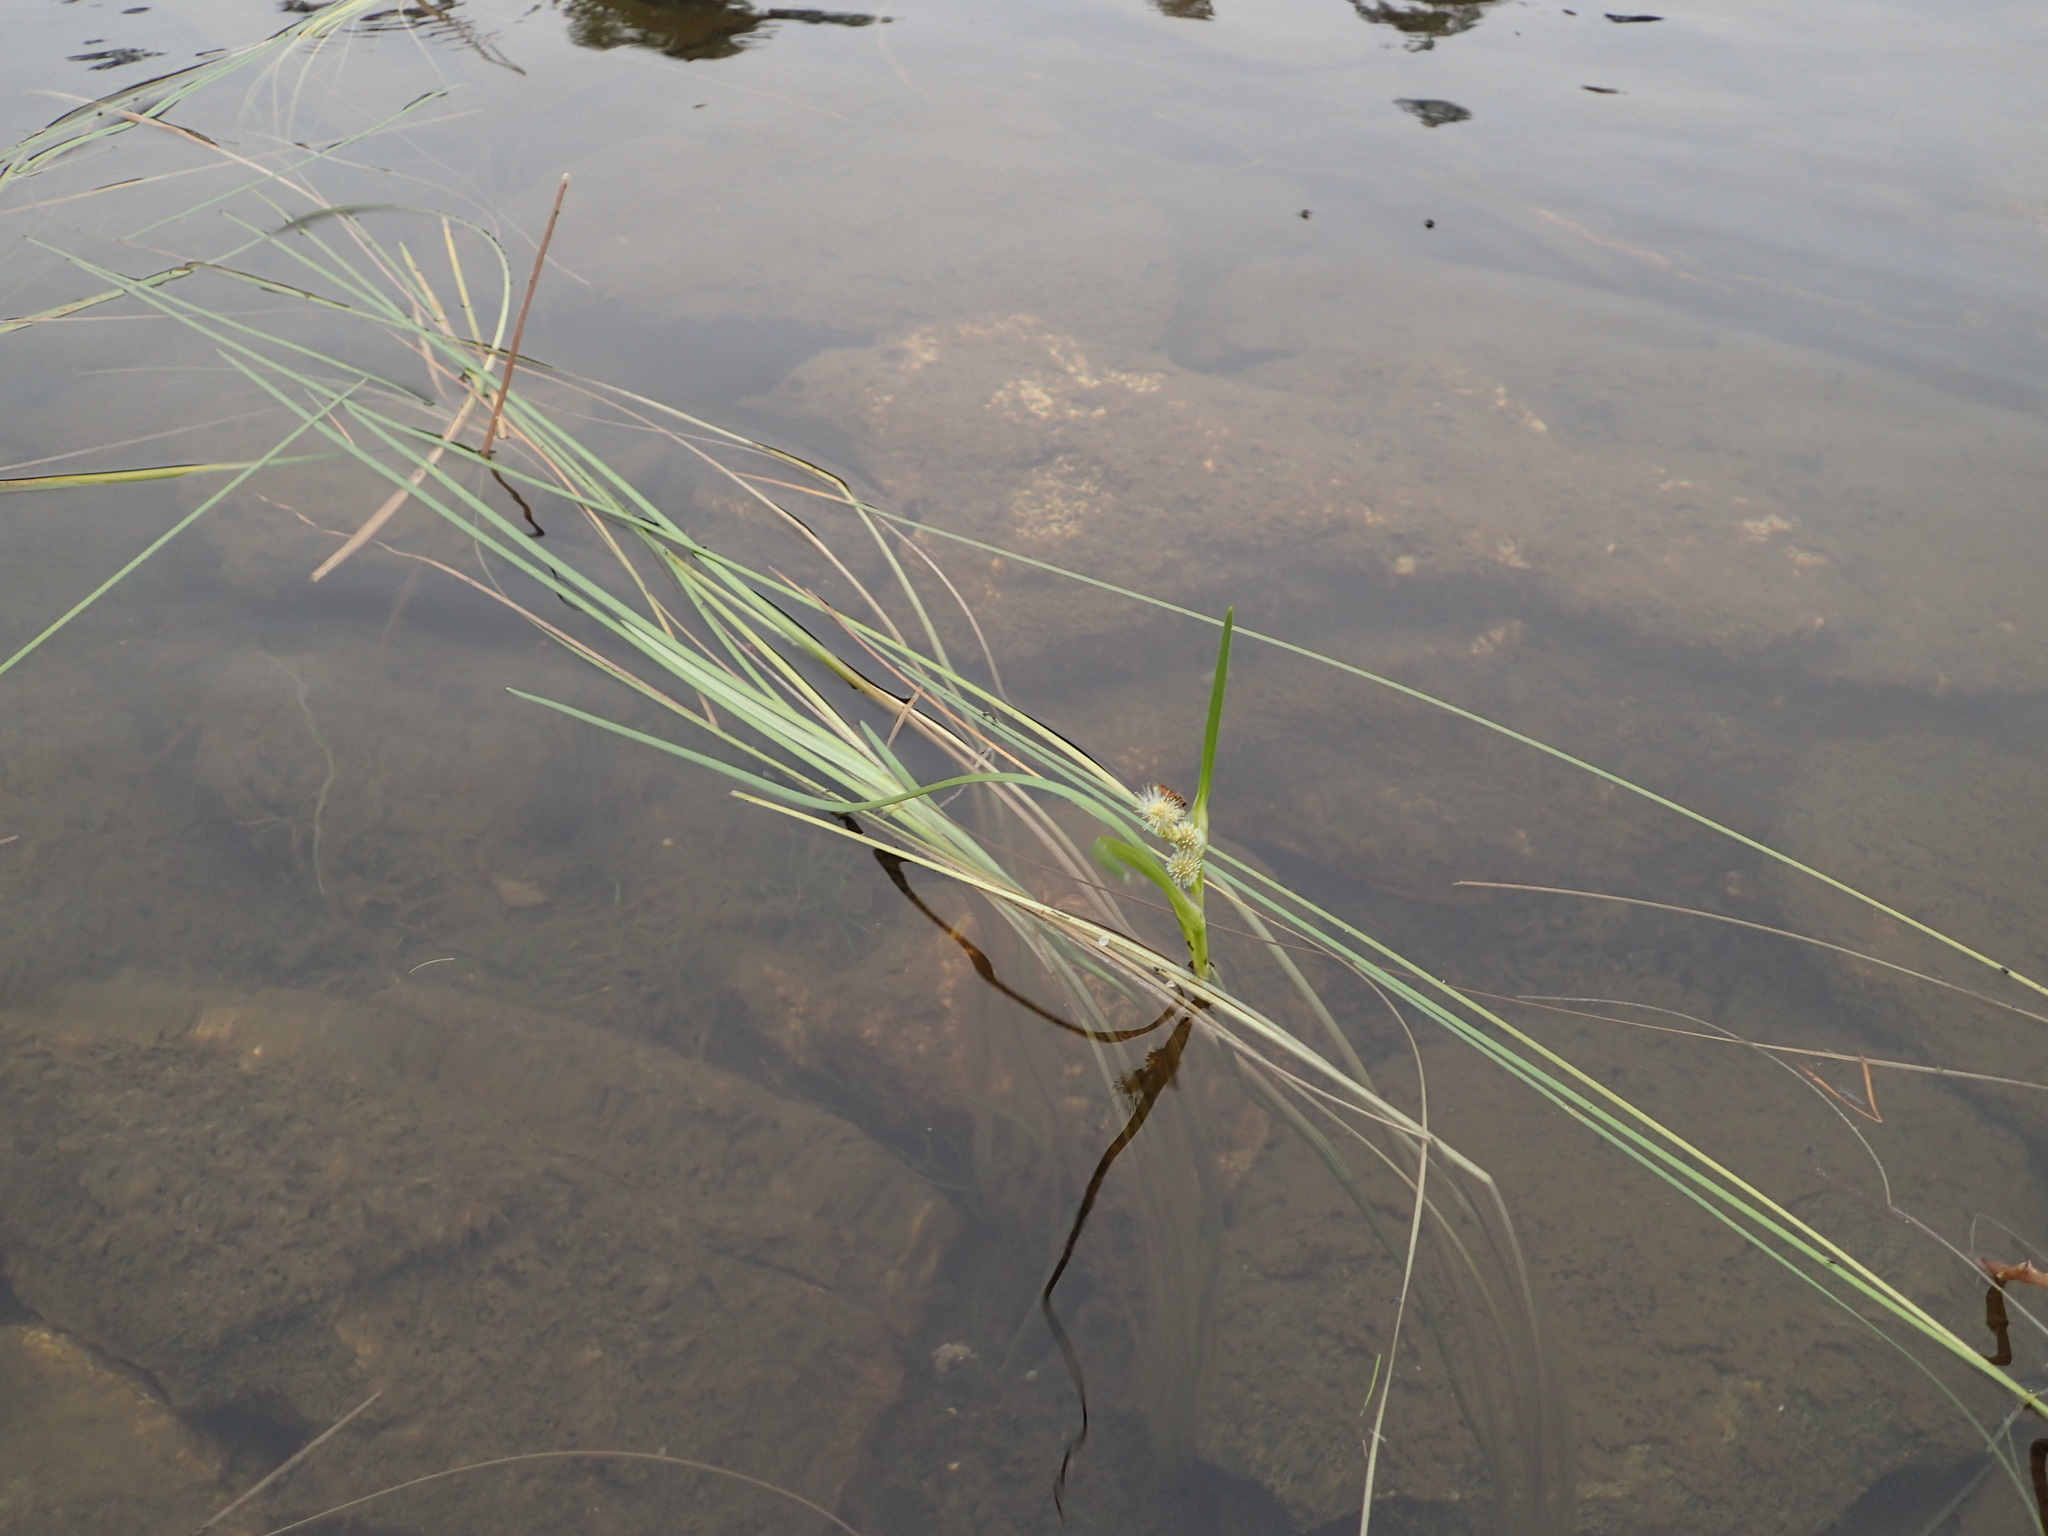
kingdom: Plantae
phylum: Tracheophyta
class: Liliopsida
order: Poales
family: Typhaceae
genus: Sparganium
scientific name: Sparganium angustifolium
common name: Floating bur-reed
